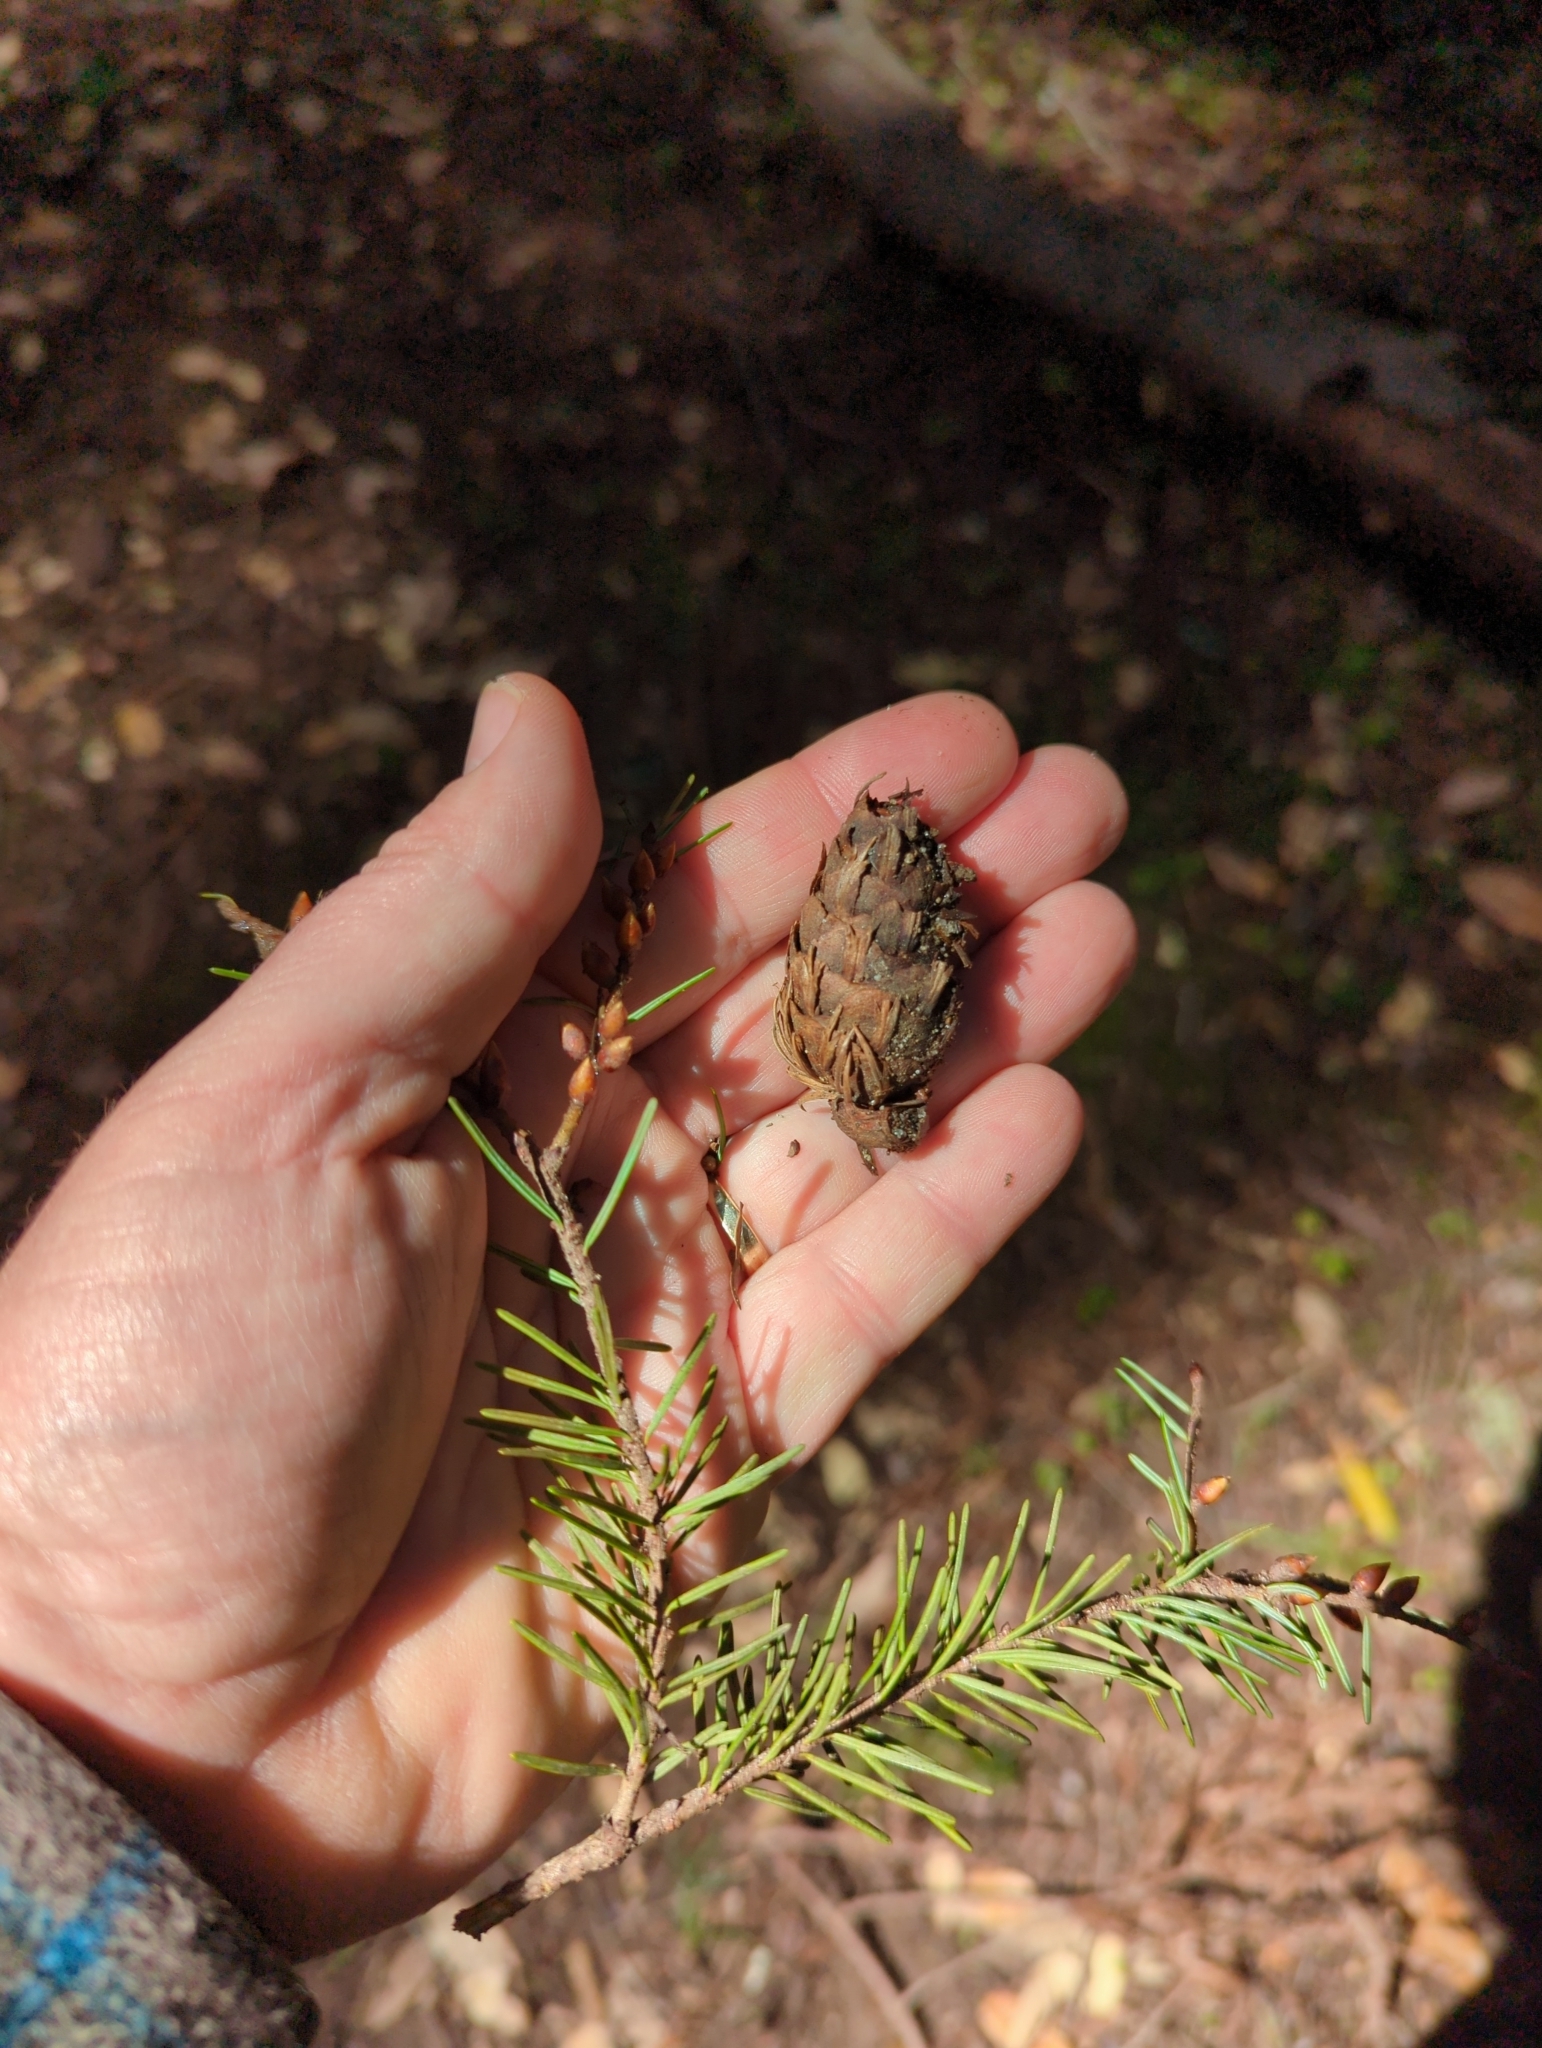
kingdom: Plantae
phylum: Tracheophyta
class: Pinopsida
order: Pinales
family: Pinaceae
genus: Pseudotsuga
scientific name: Pseudotsuga menziesii
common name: Douglas fir
